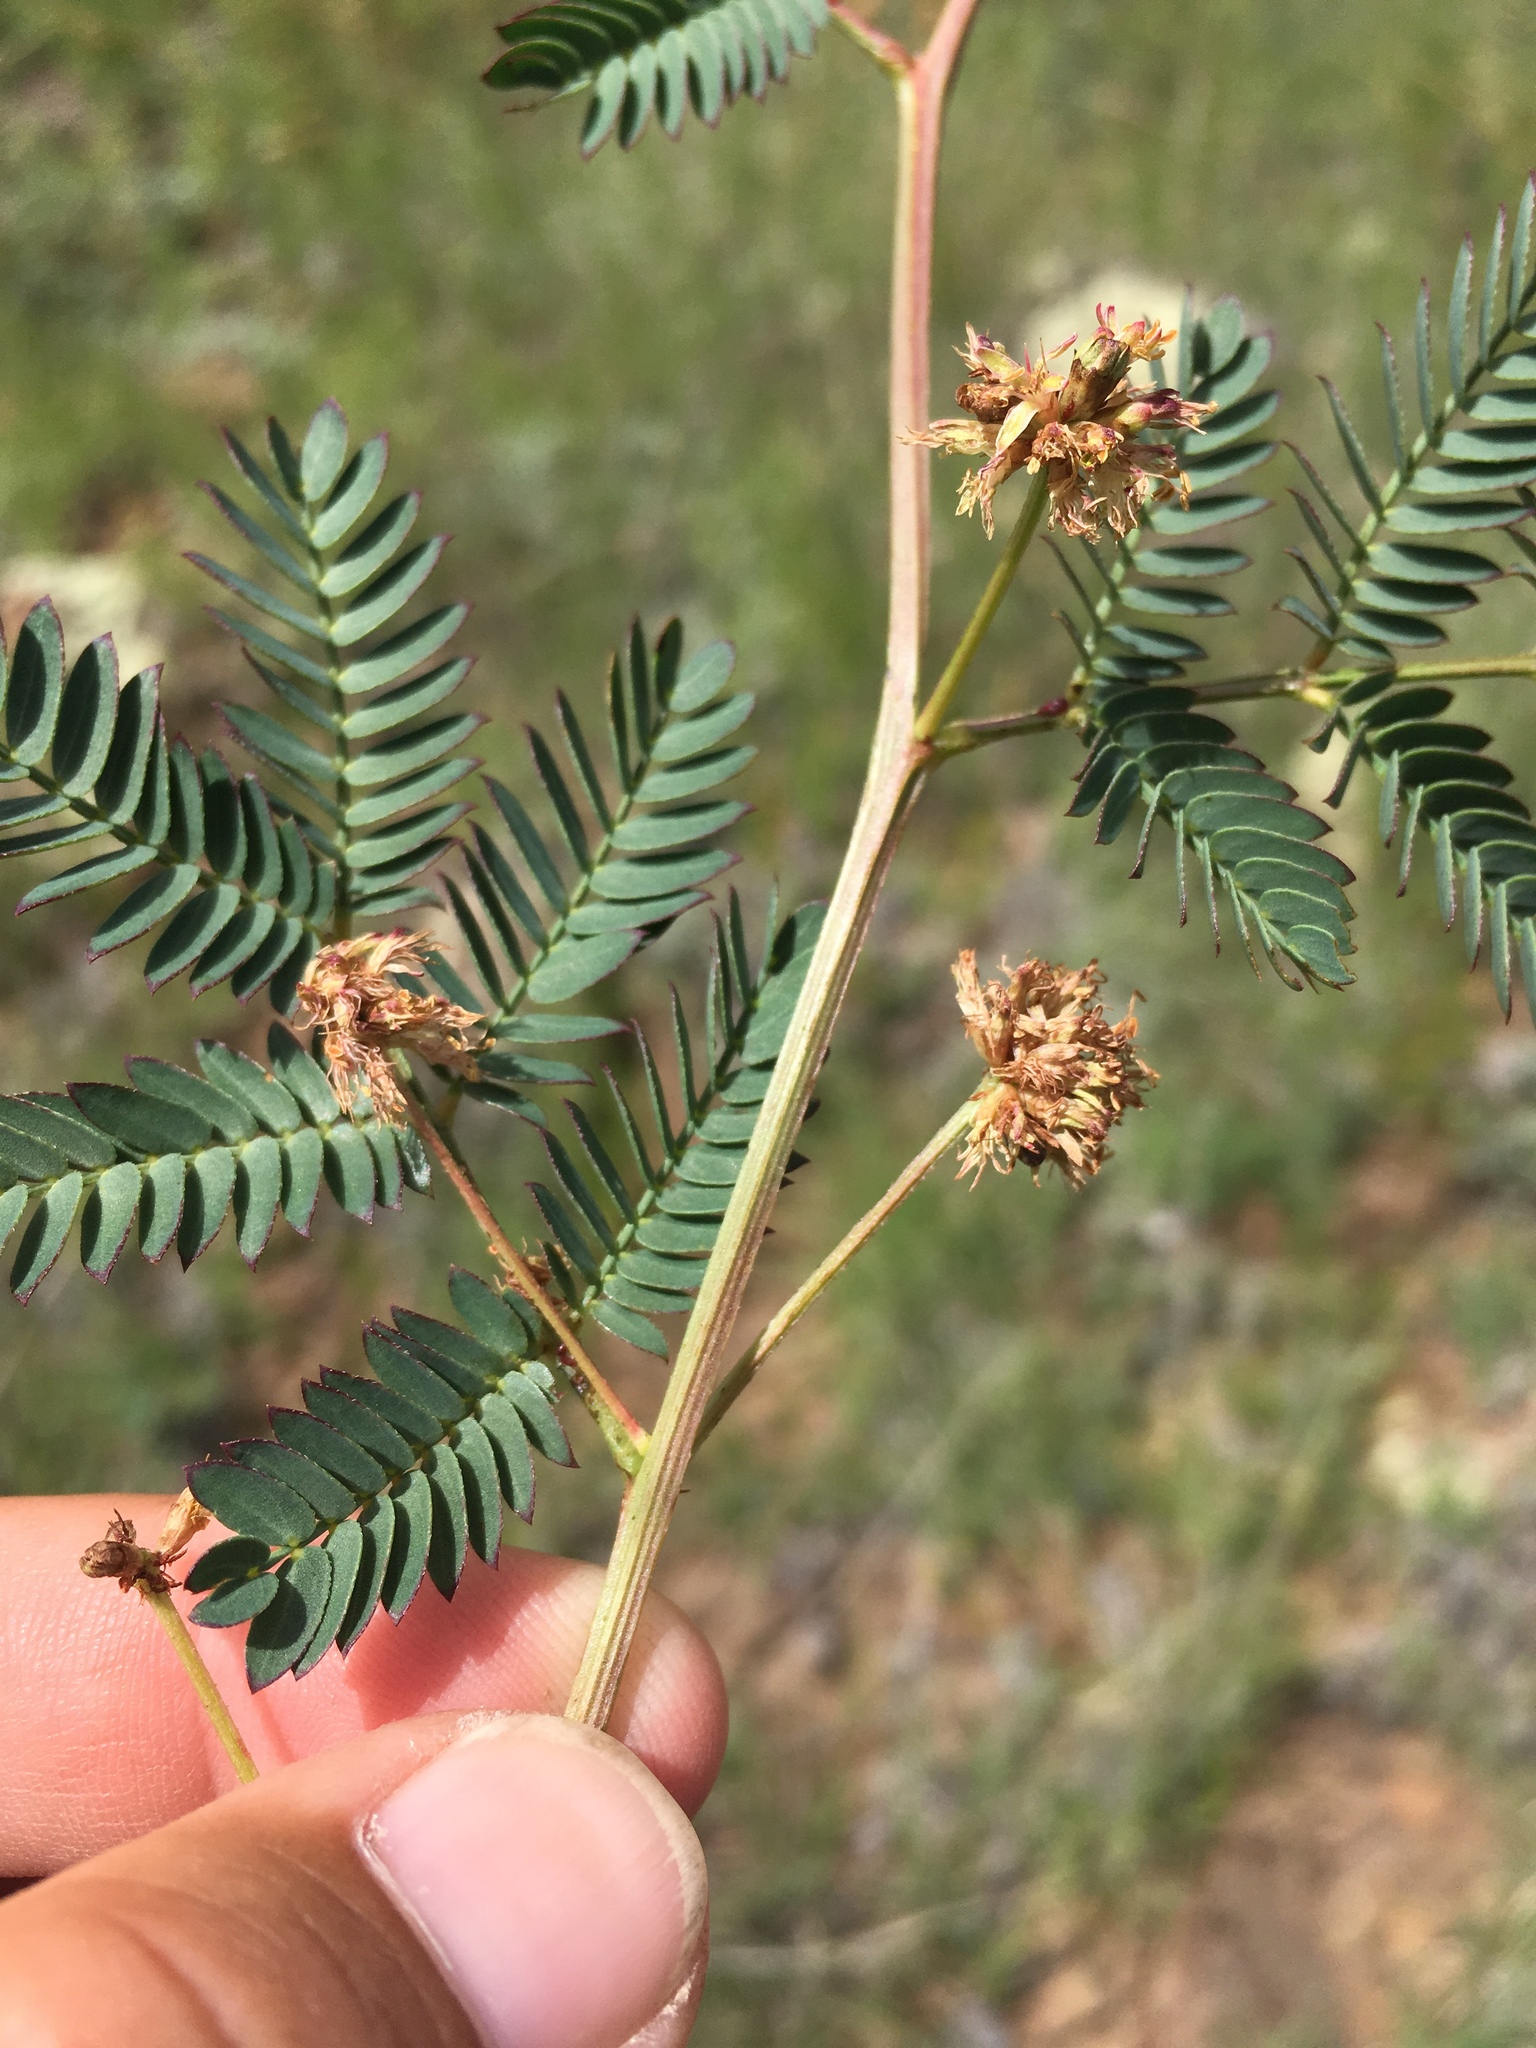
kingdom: Plantae
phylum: Tracheophyta
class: Magnoliopsida
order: Fabales
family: Fabaceae
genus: Desmanthus
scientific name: Desmanthus cooleyi
